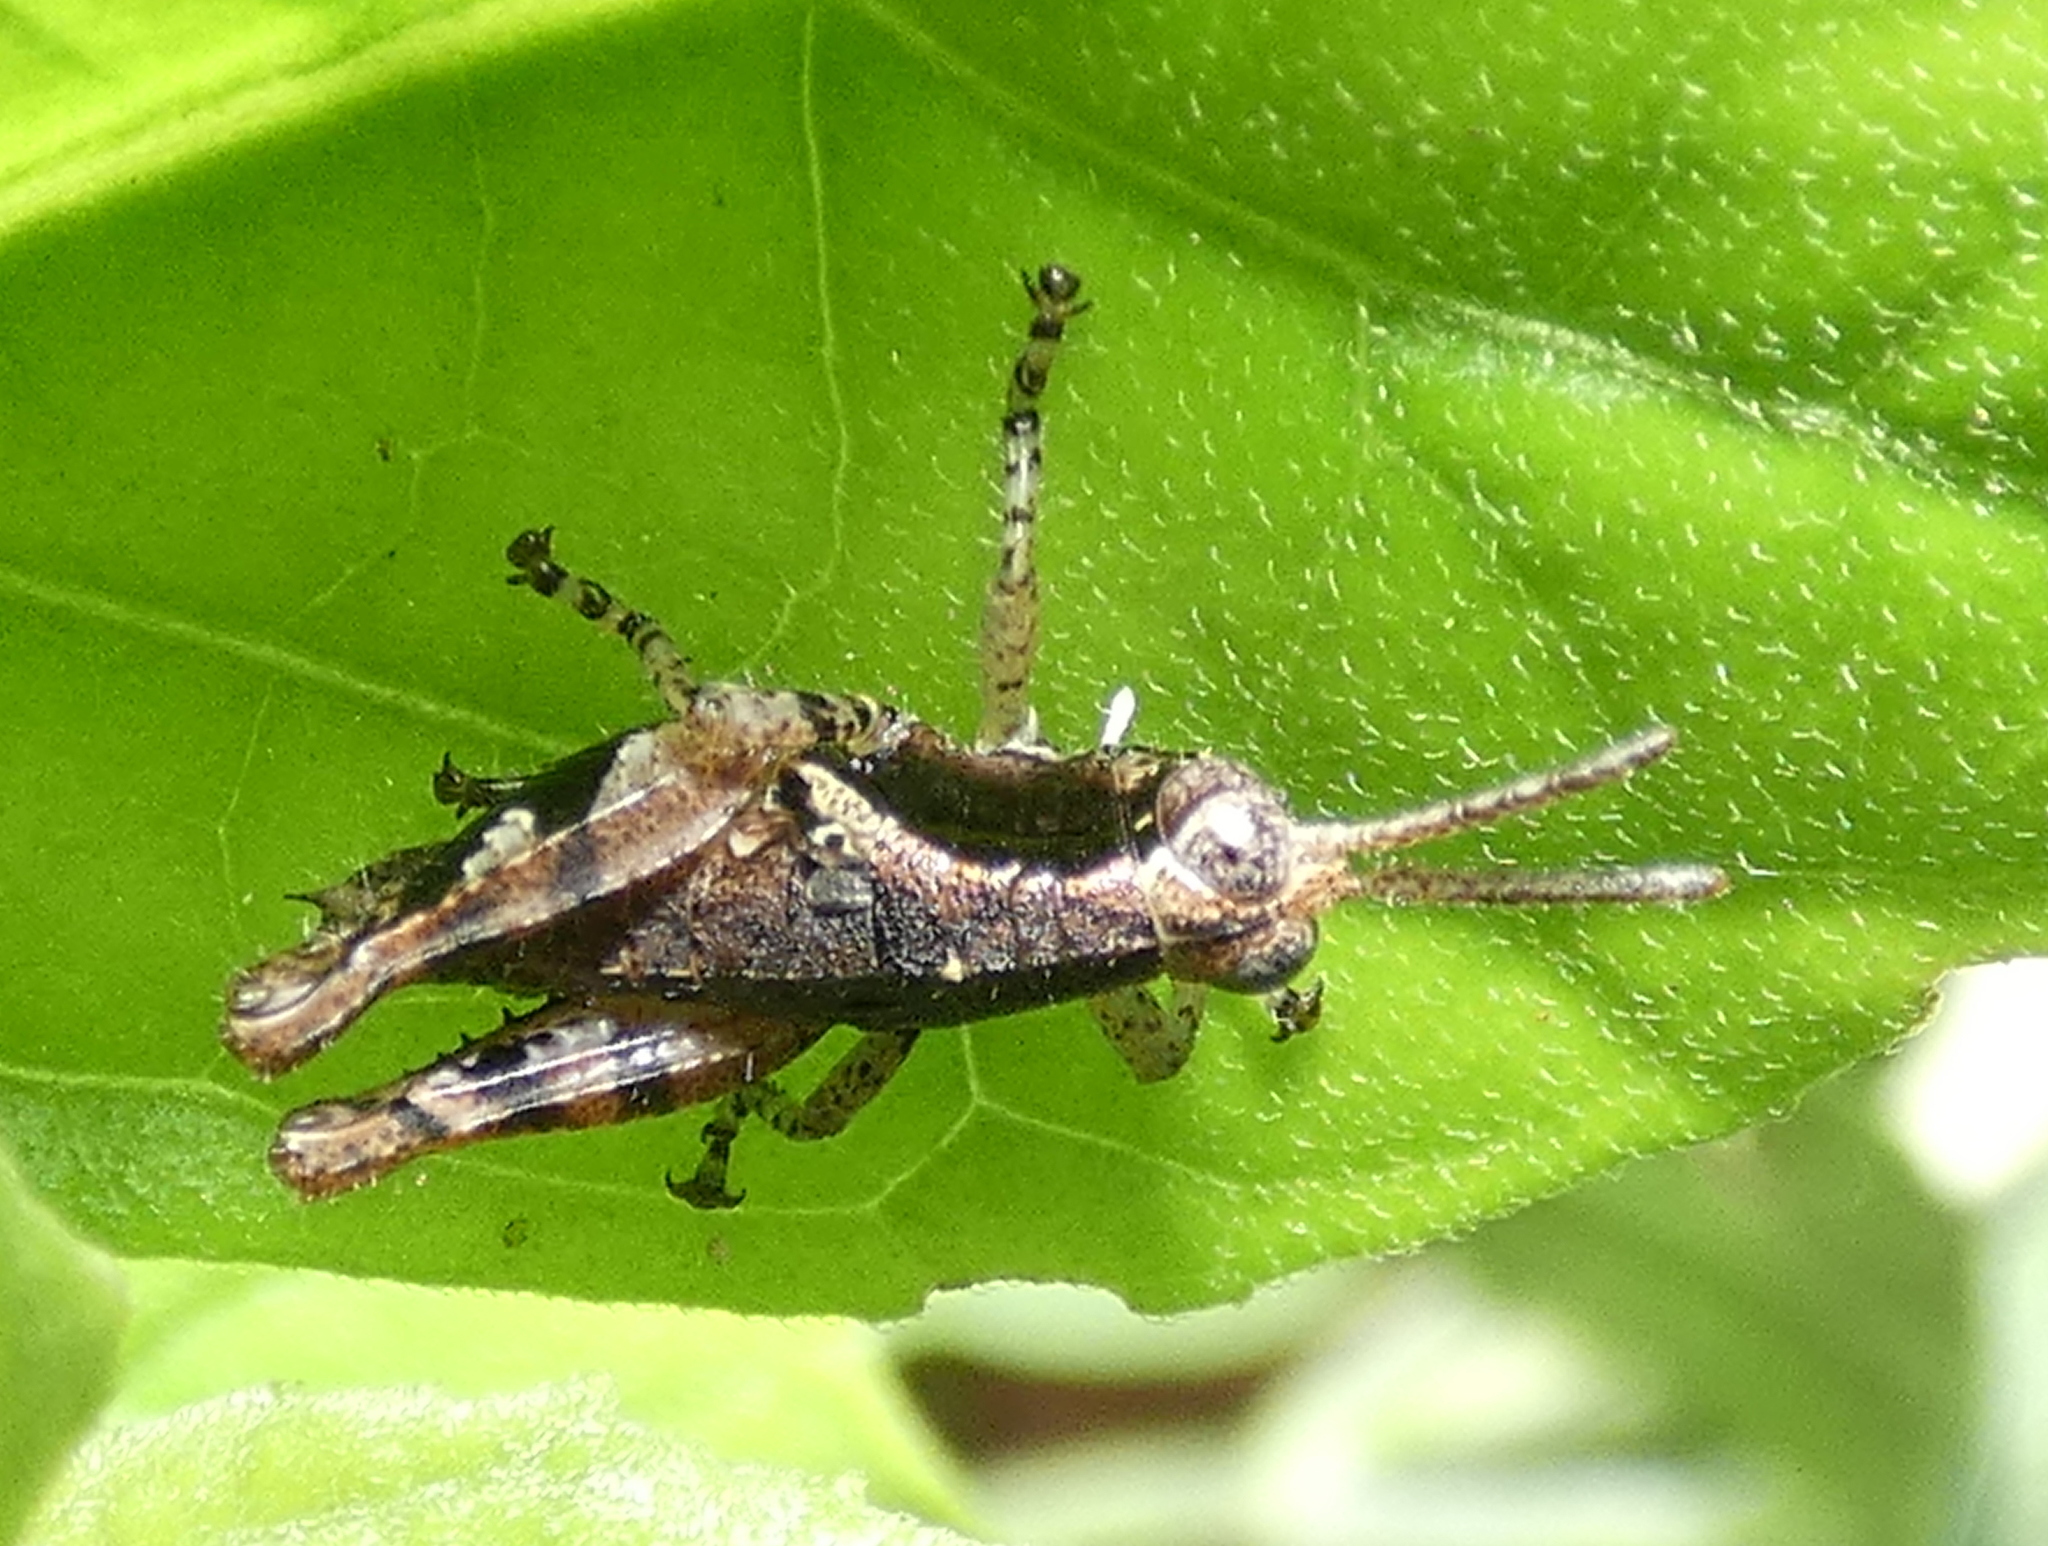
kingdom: Animalia
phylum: Arthropoda
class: Insecta
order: Orthoptera
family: Acrididae
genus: Eujivarus
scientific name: Eujivarus meridionalis
